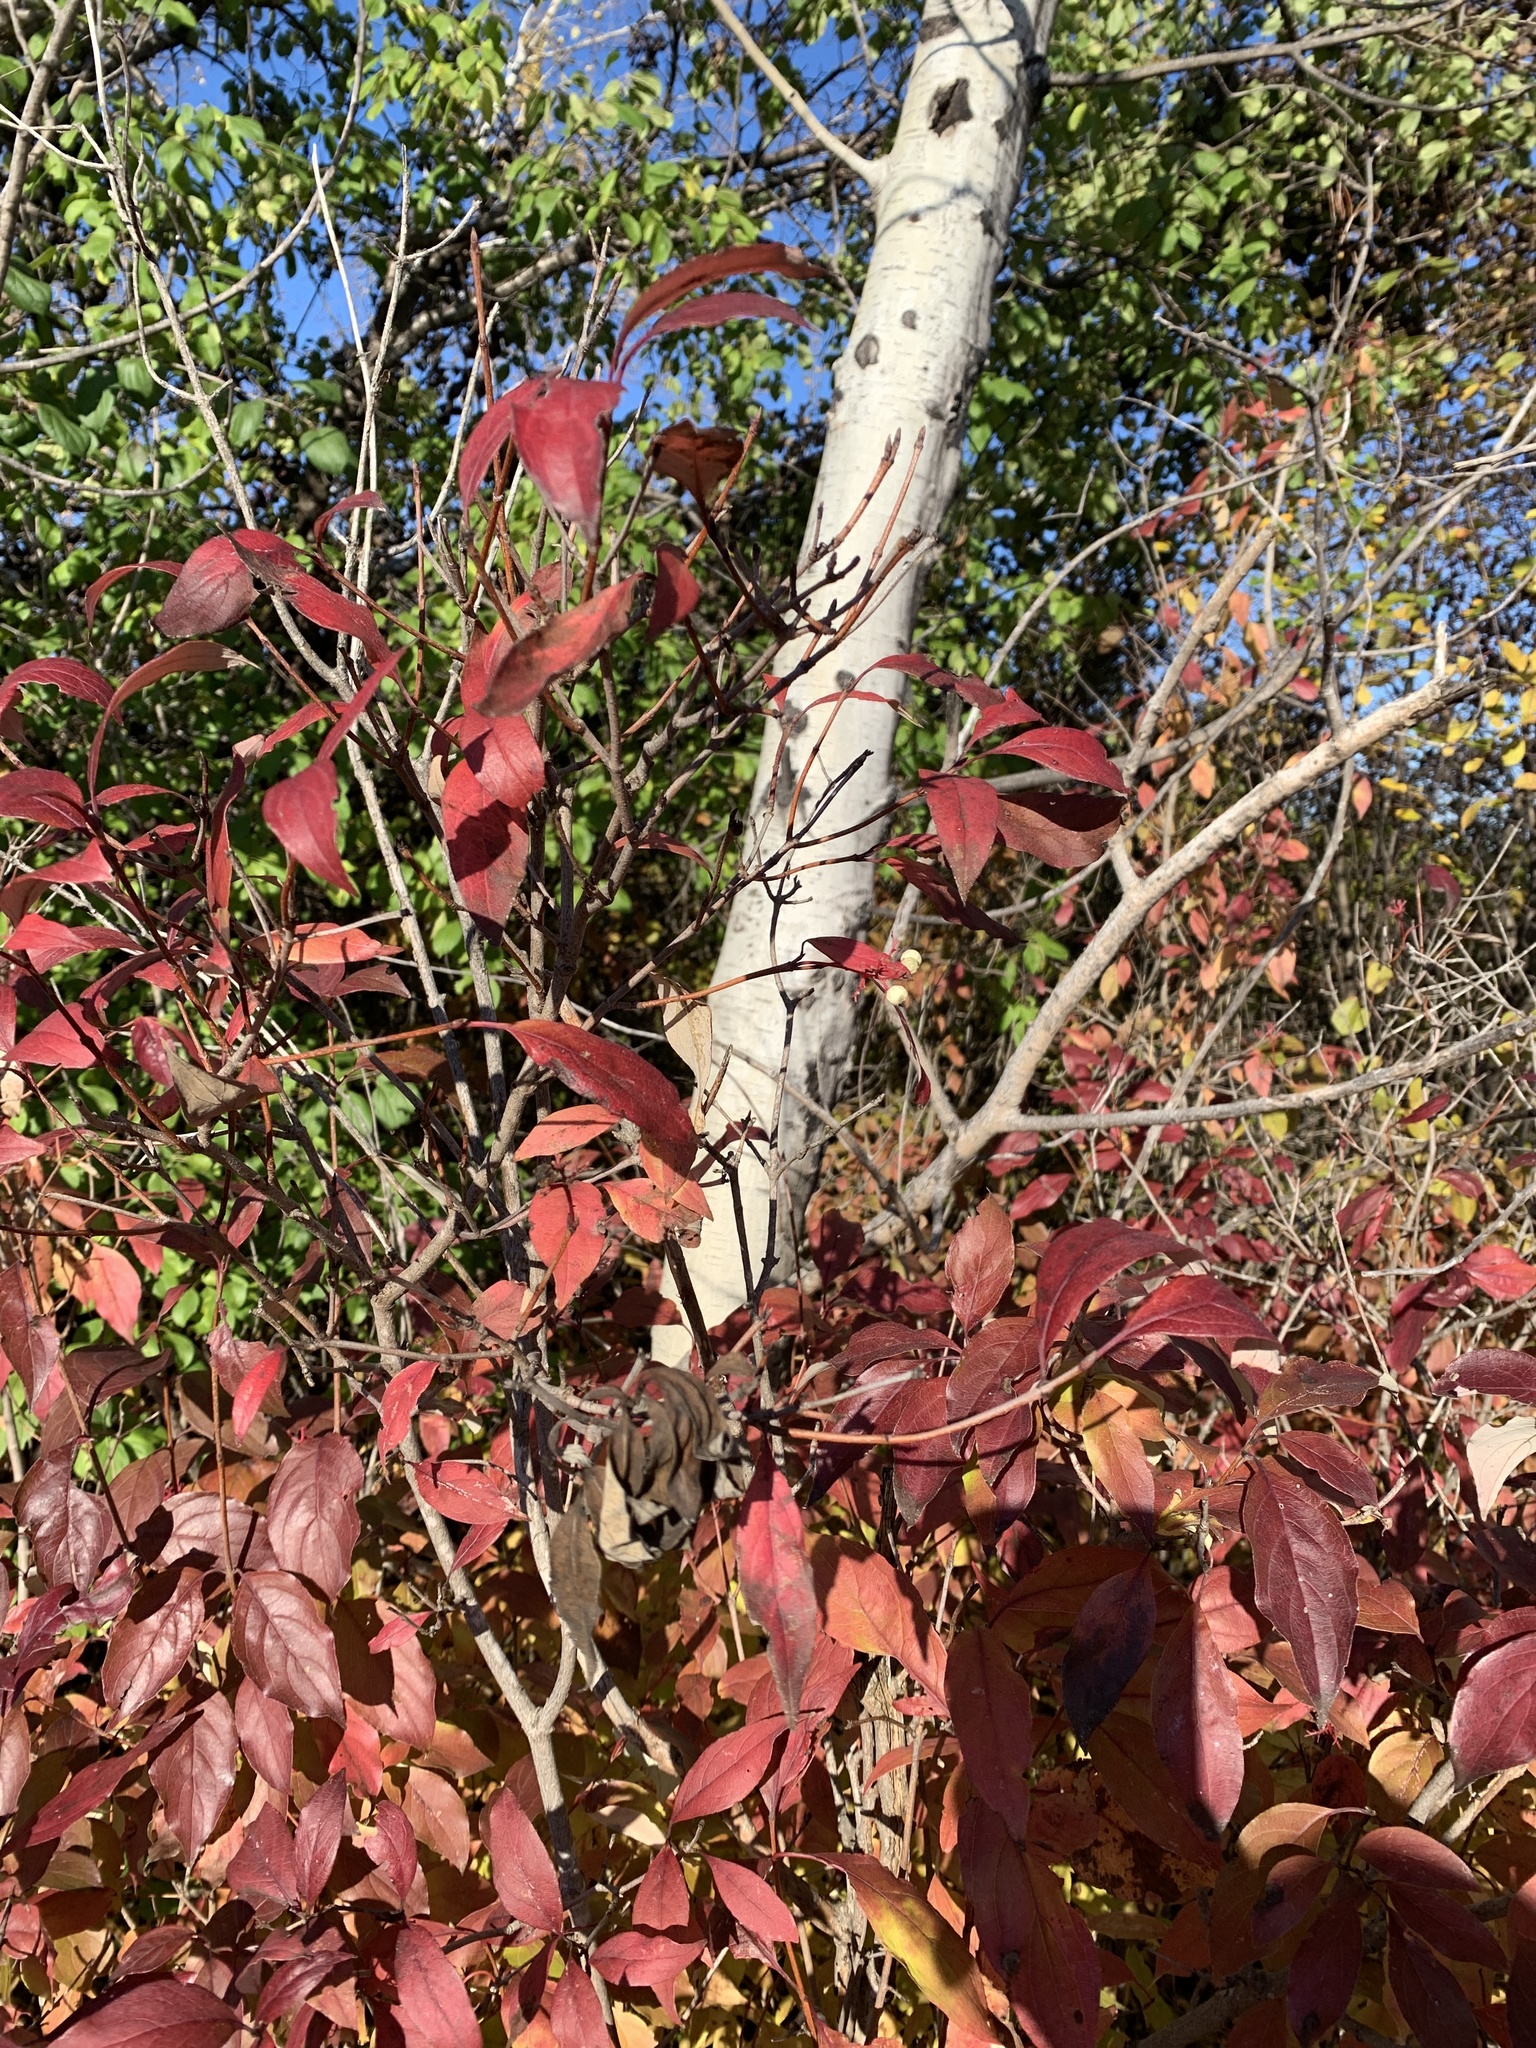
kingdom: Plantae
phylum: Tracheophyta
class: Magnoliopsida
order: Cornales
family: Cornaceae
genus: Cornus
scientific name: Cornus racemosa
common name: Panicled dogwood
